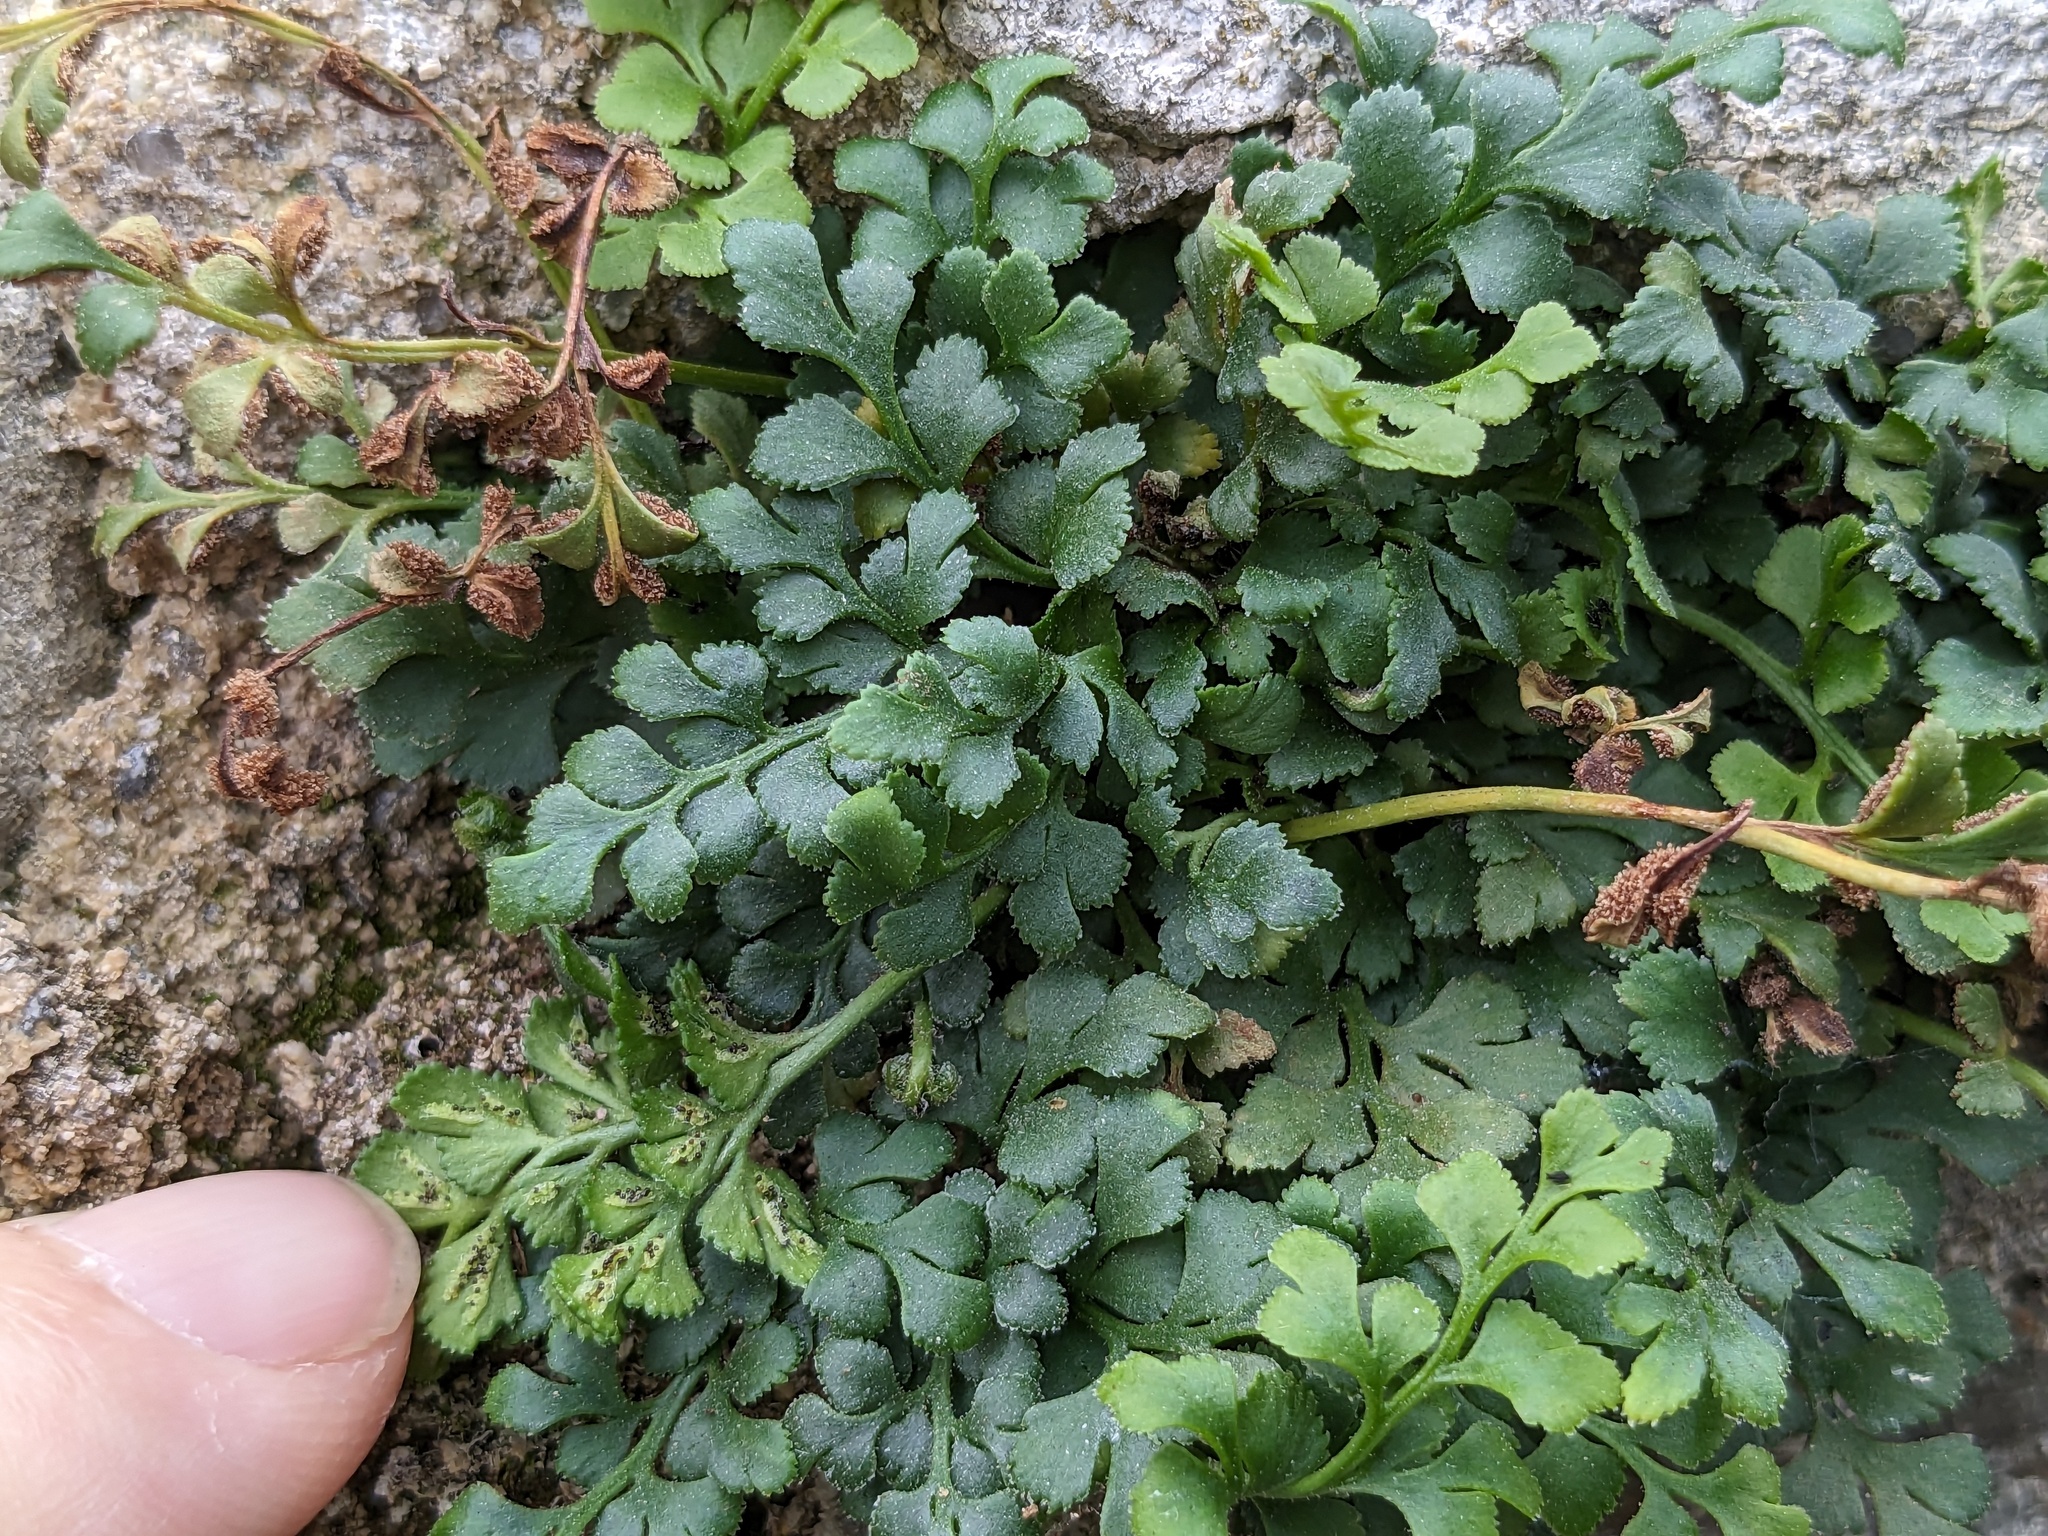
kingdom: Plantae
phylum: Tracheophyta
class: Polypodiopsida
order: Polypodiales
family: Aspleniaceae
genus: Asplenium
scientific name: Asplenium ruta-muraria
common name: Wall-rue
